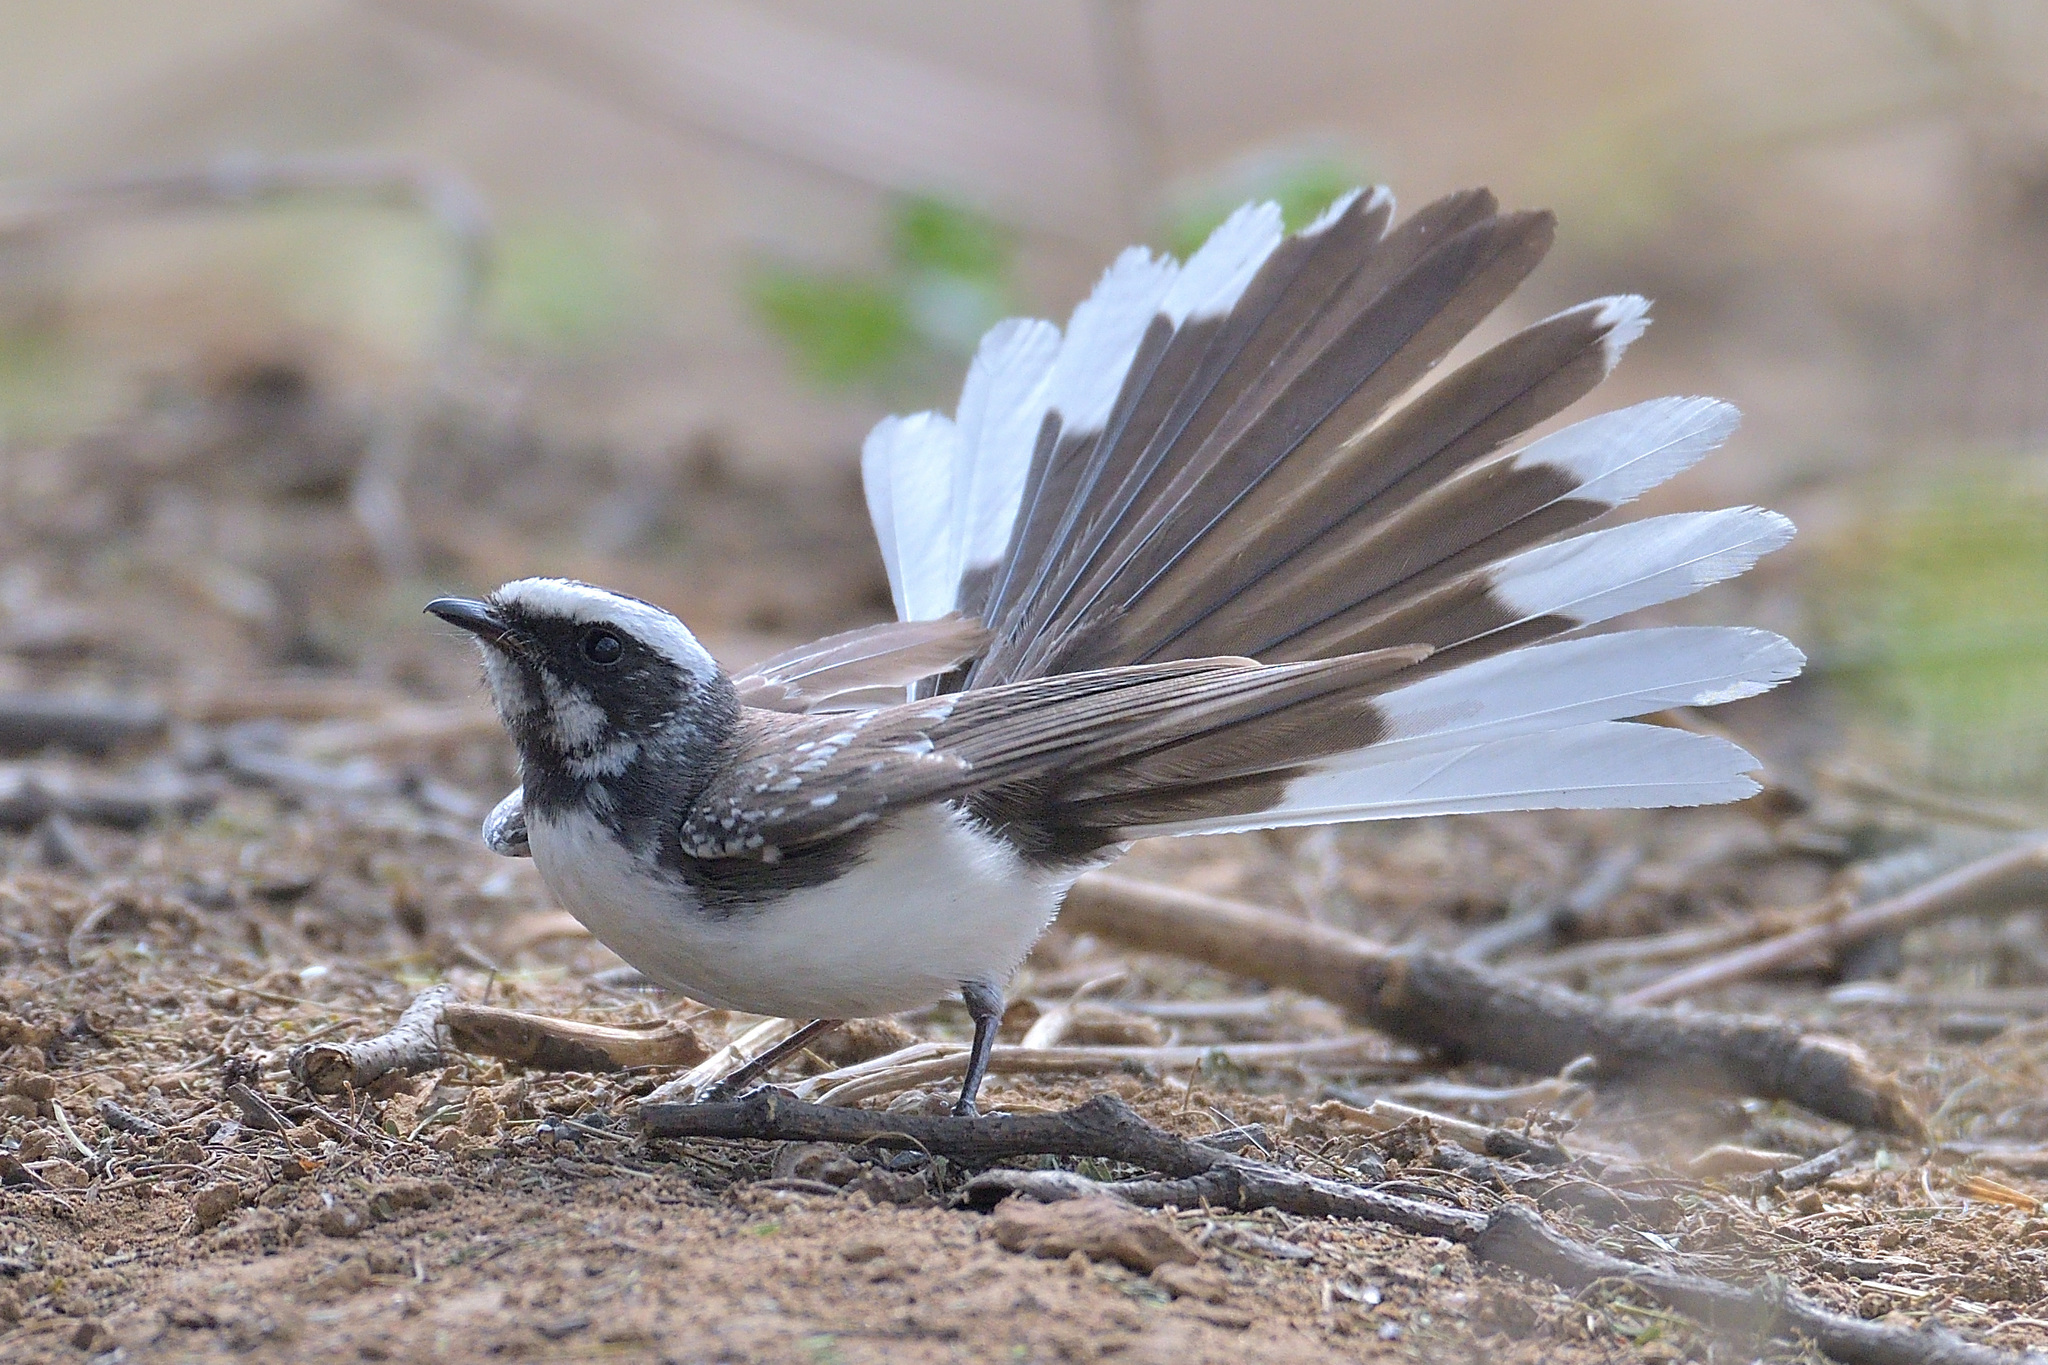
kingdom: Animalia
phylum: Chordata
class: Aves
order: Passeriformes
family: Rhipiduridae
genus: Rhipidura
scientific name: Rhipidura aureola
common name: White-browed fantail
